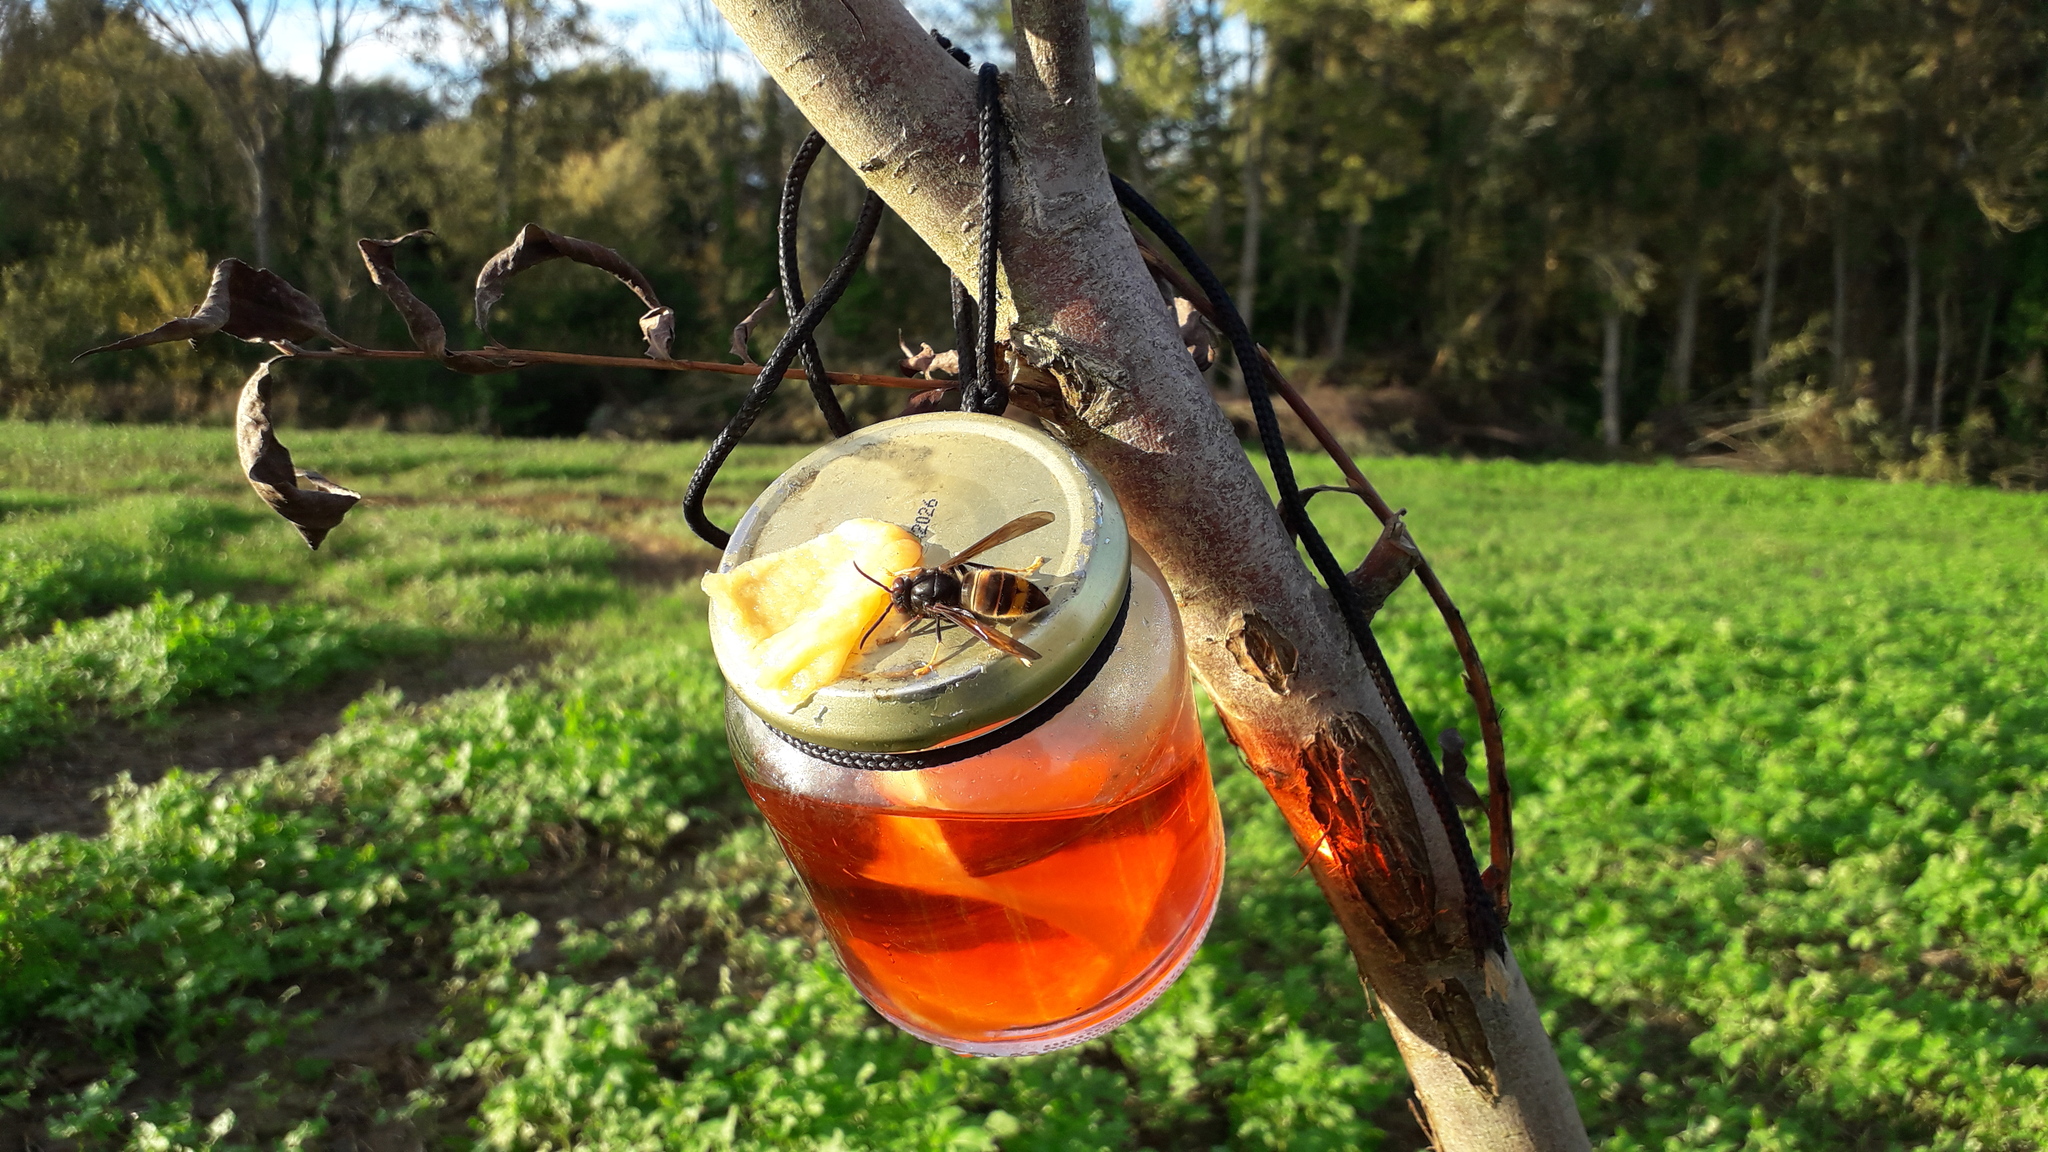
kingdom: Animalia
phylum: Arthropoda
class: Insecta
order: Hymenoptera
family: Vespidae
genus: Vespa
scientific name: Vespa velutina
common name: Asian hornet
